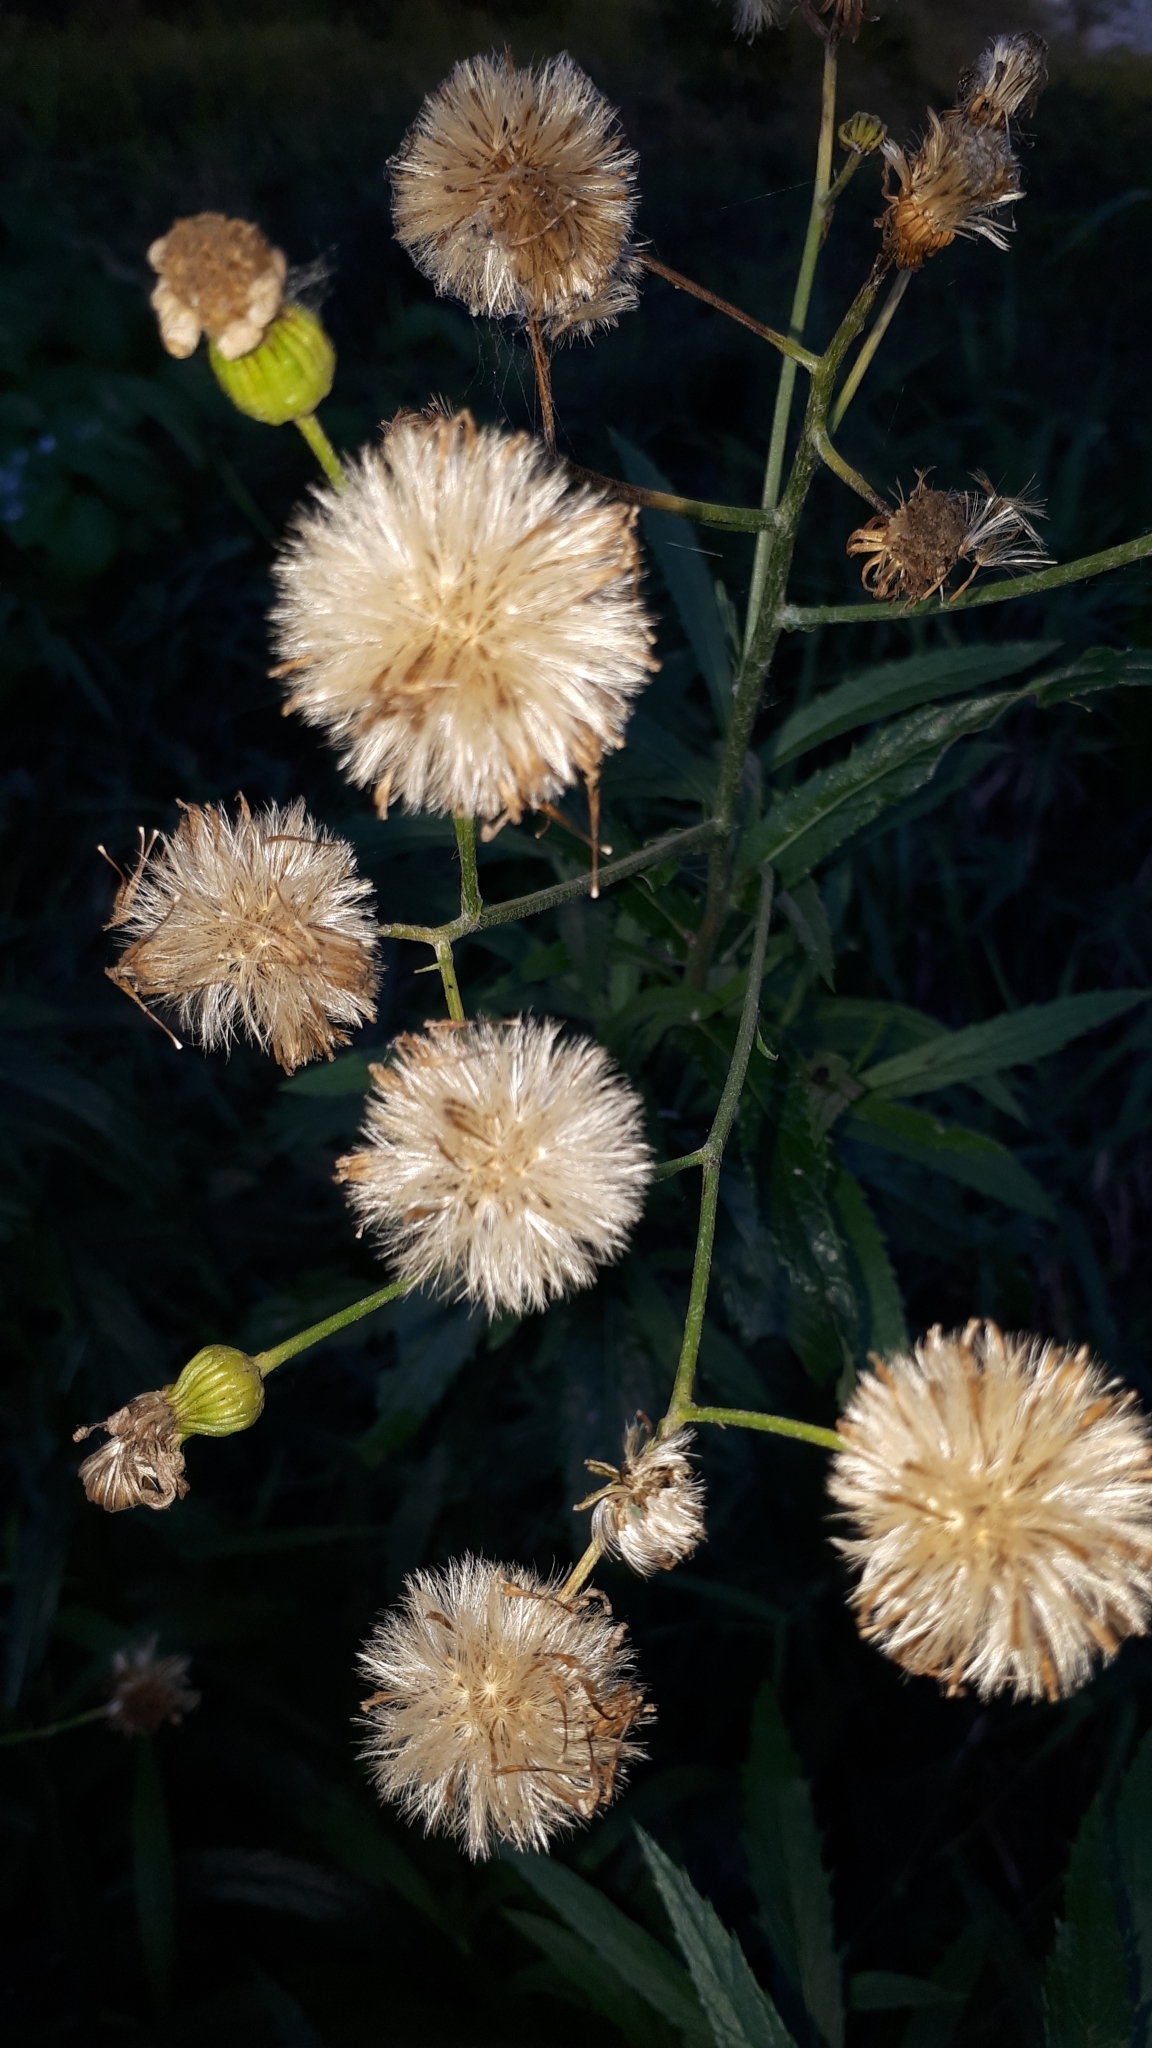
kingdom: Plantae
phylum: Tracheophyta
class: Magnoliopsida
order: Asterales
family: Asteraceae
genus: Jacobaea
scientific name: Jacobaea paludosa
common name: Fen ragwort
